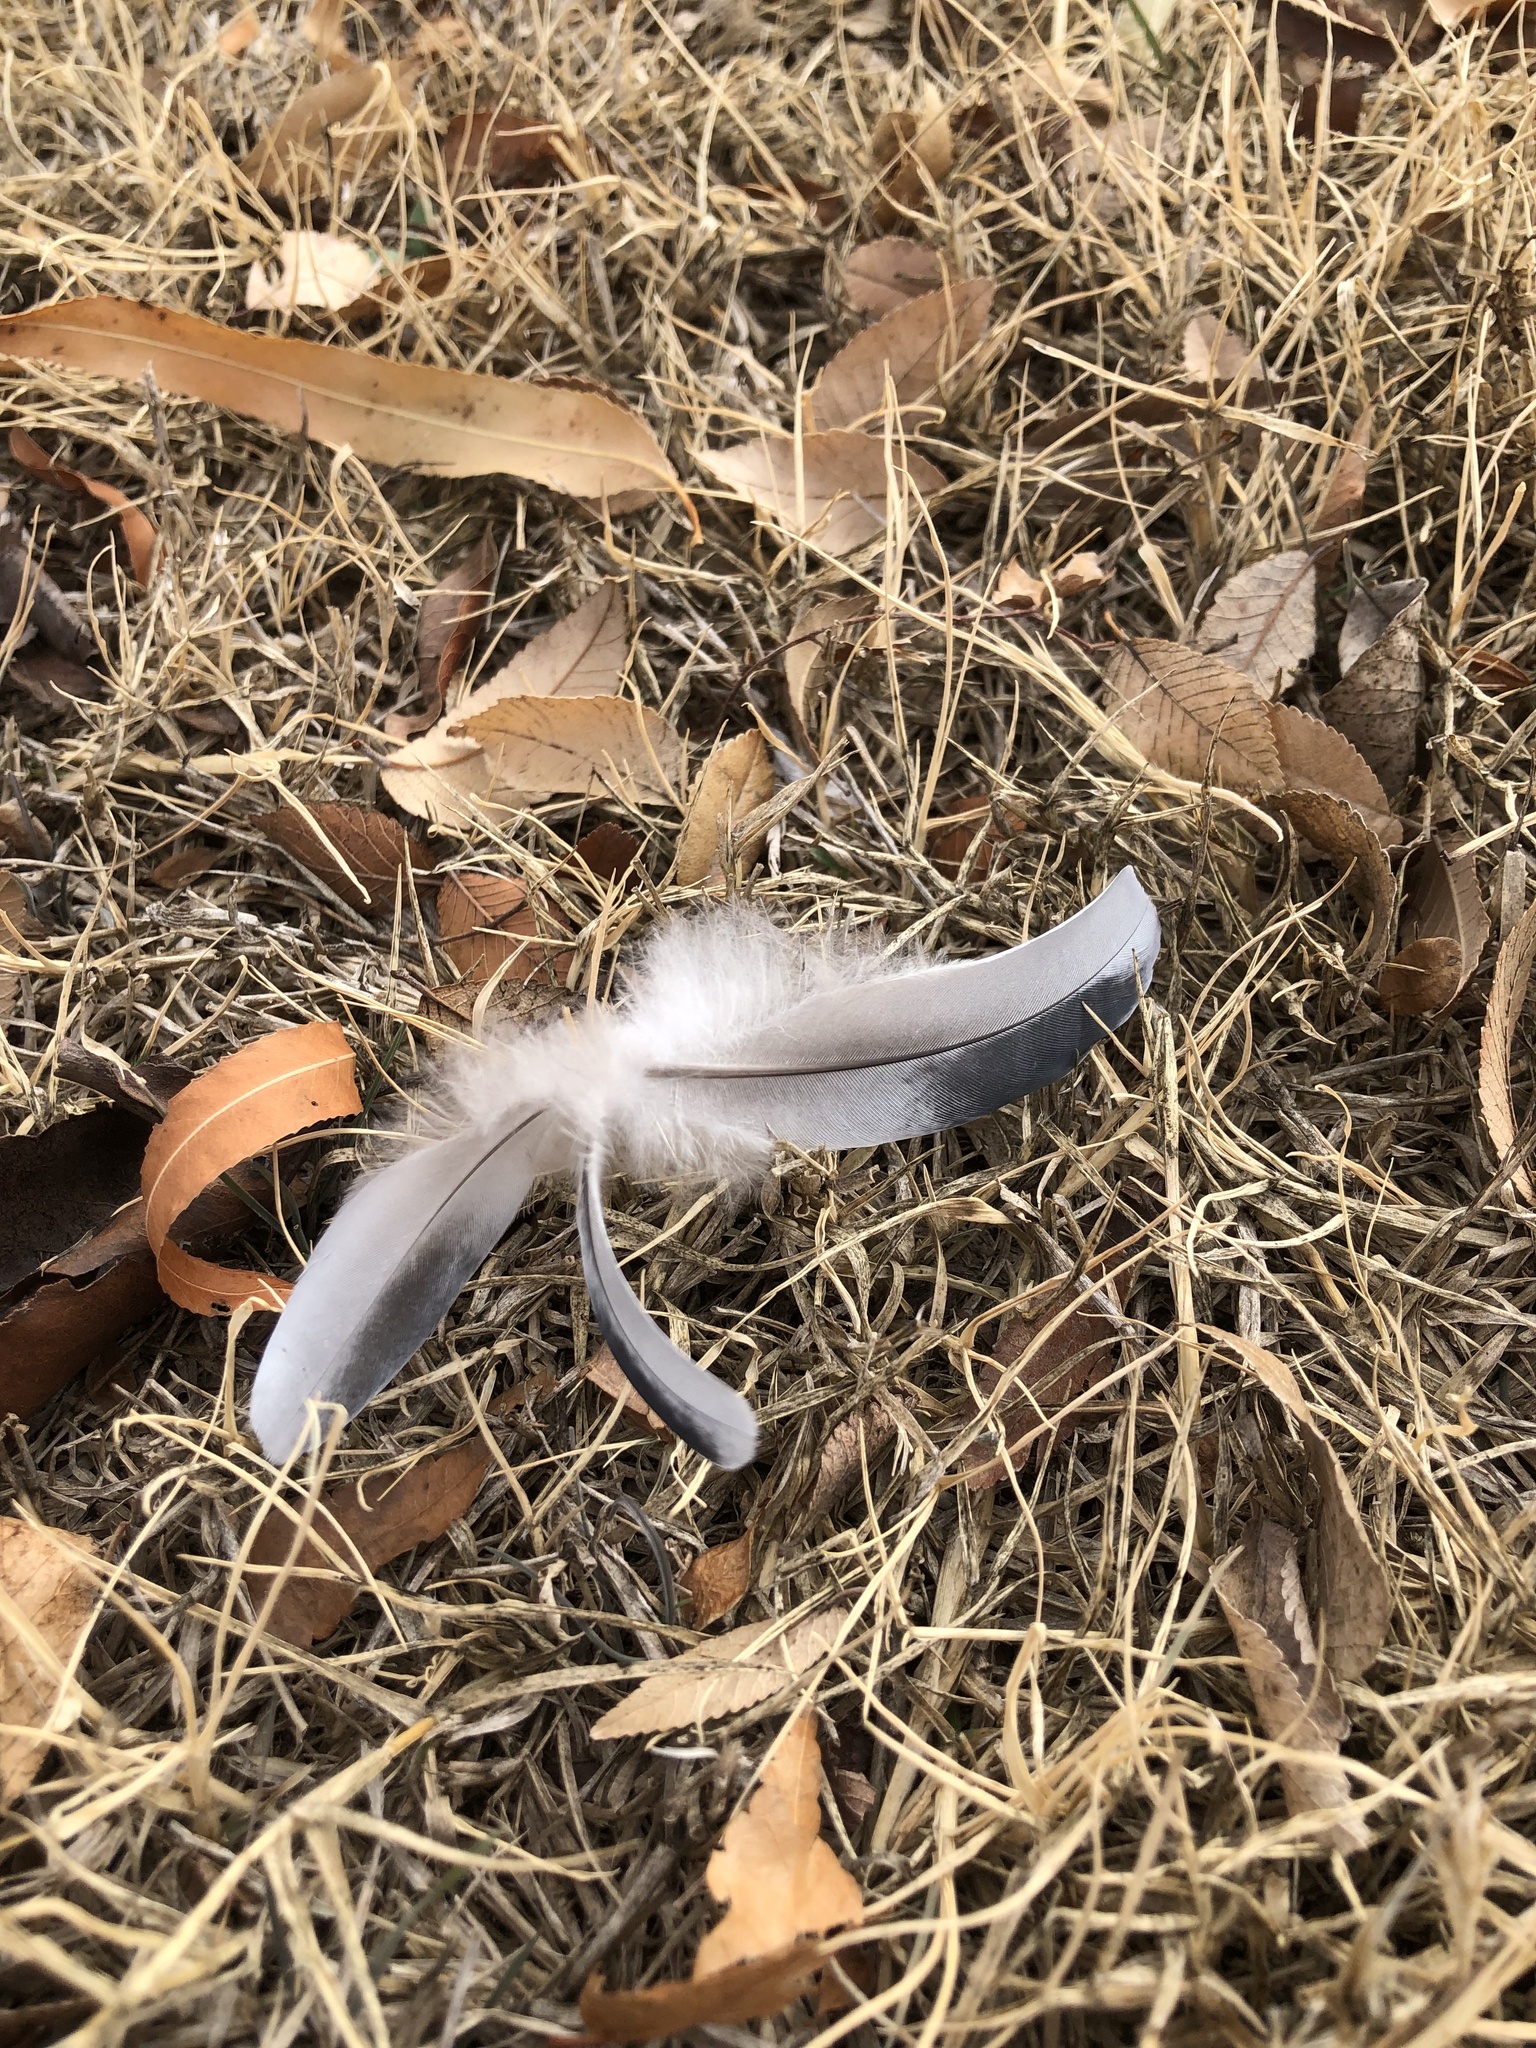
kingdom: Animalia
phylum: Chordata
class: Aves
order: Columbiformes
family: Columbidae
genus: Columba
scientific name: Columba livia
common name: Rock pigeon
